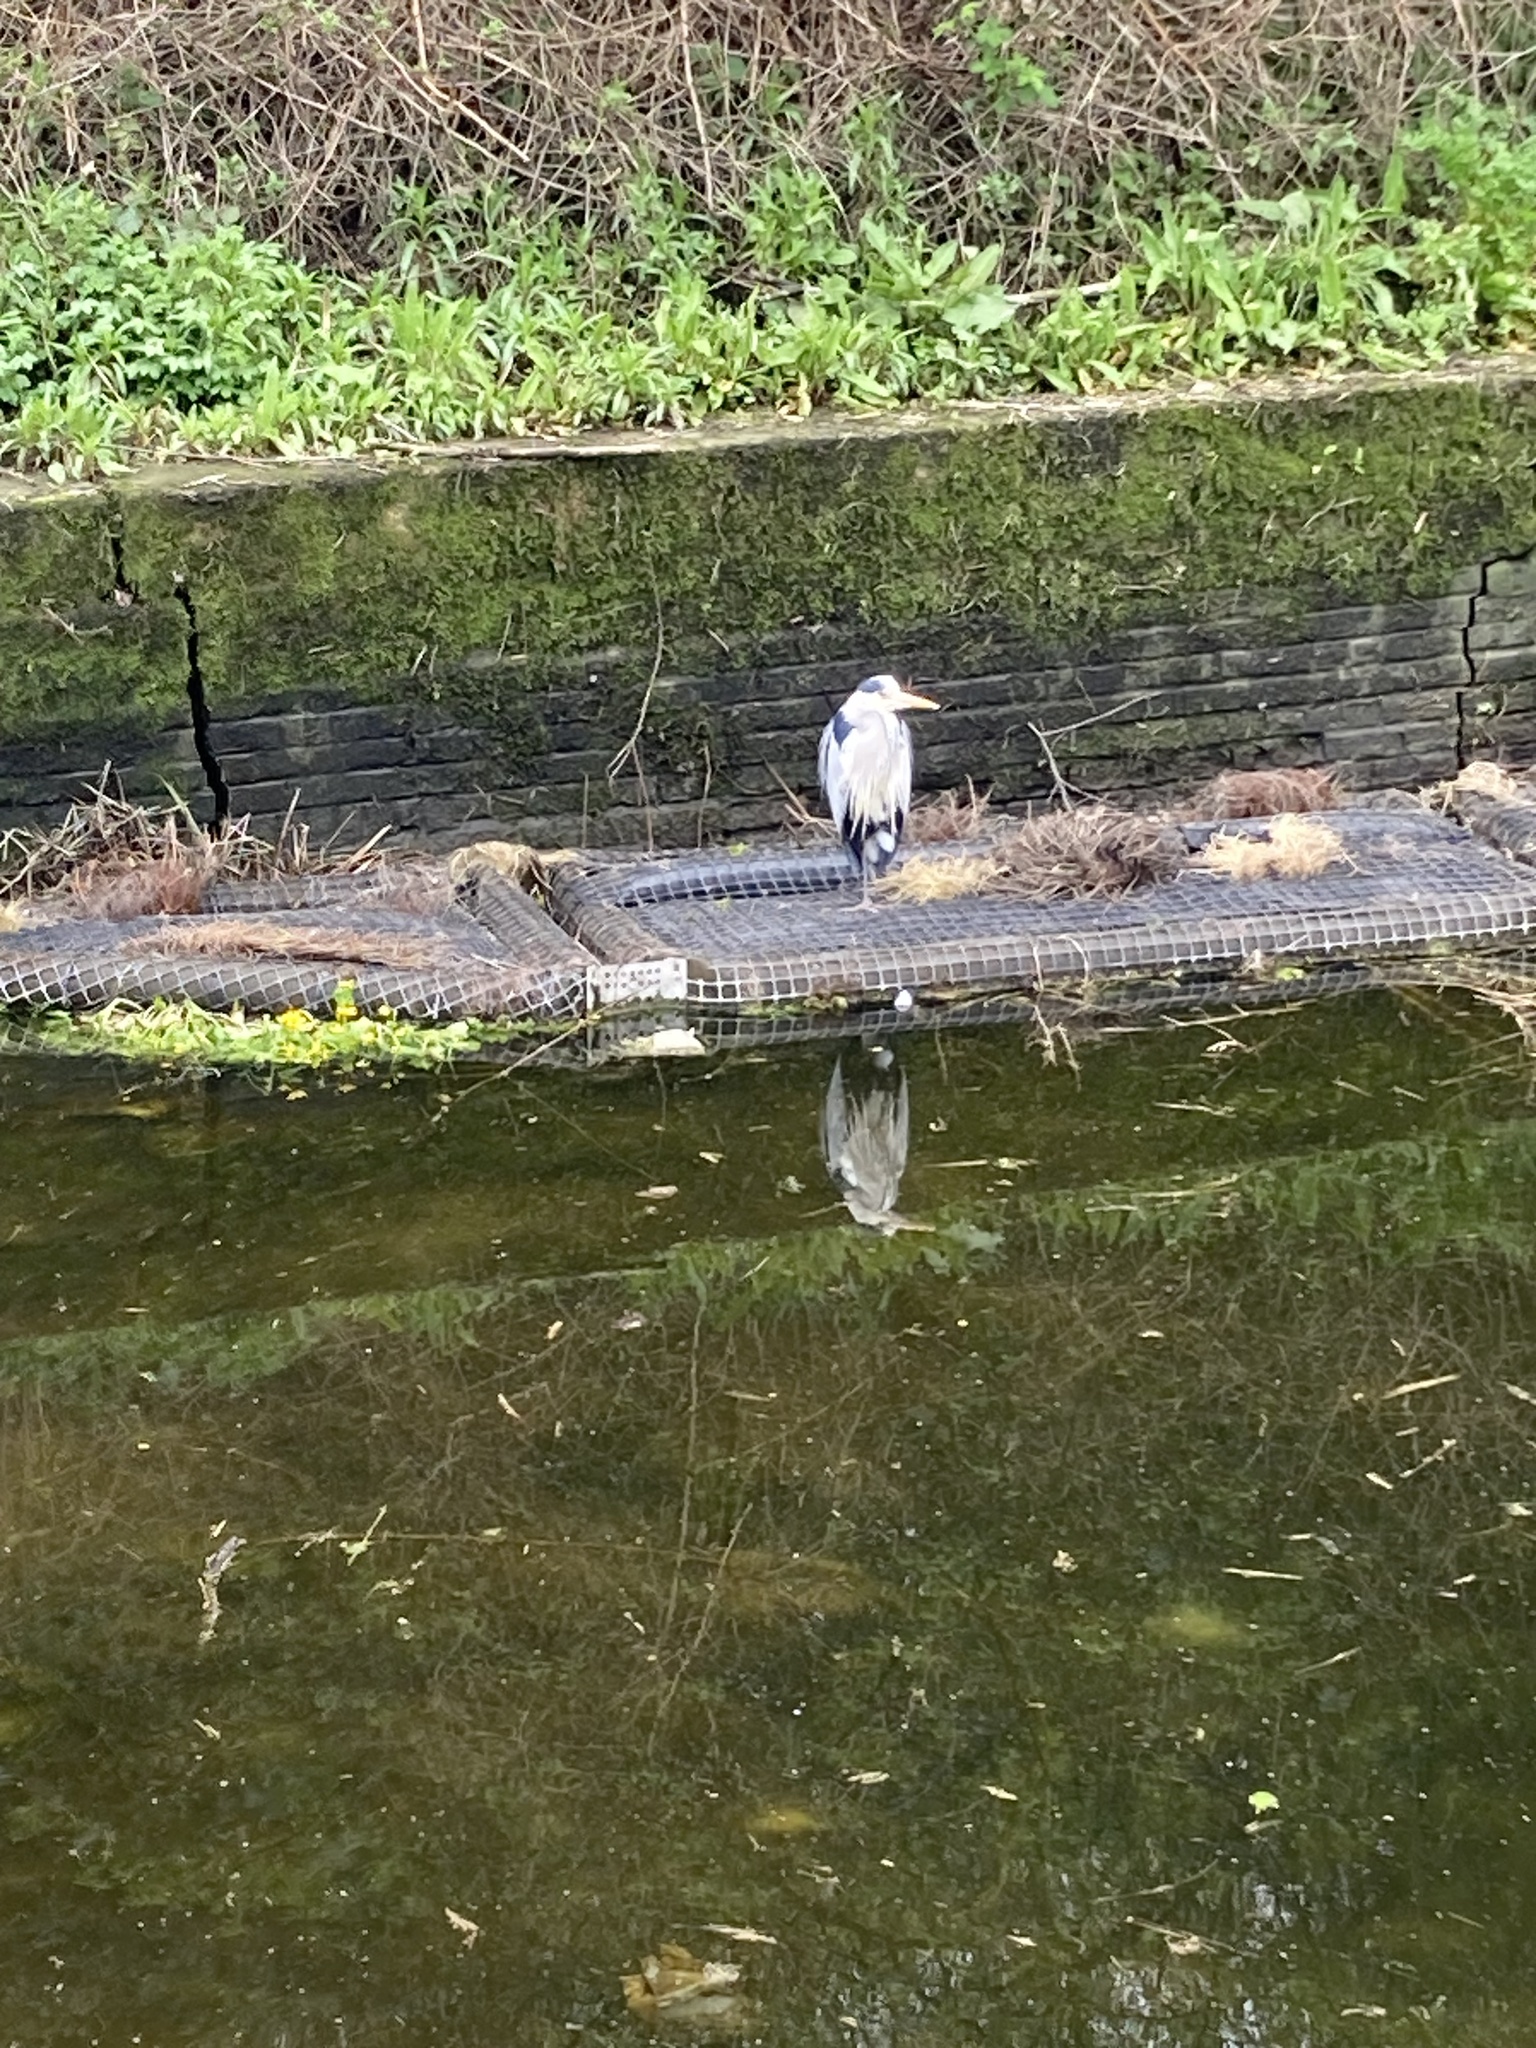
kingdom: Animalia
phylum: Chordata
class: Aves
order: Pelecaniformes
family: Ardeidae
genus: Ardea
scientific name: Ardea cinerea
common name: Grey heron
